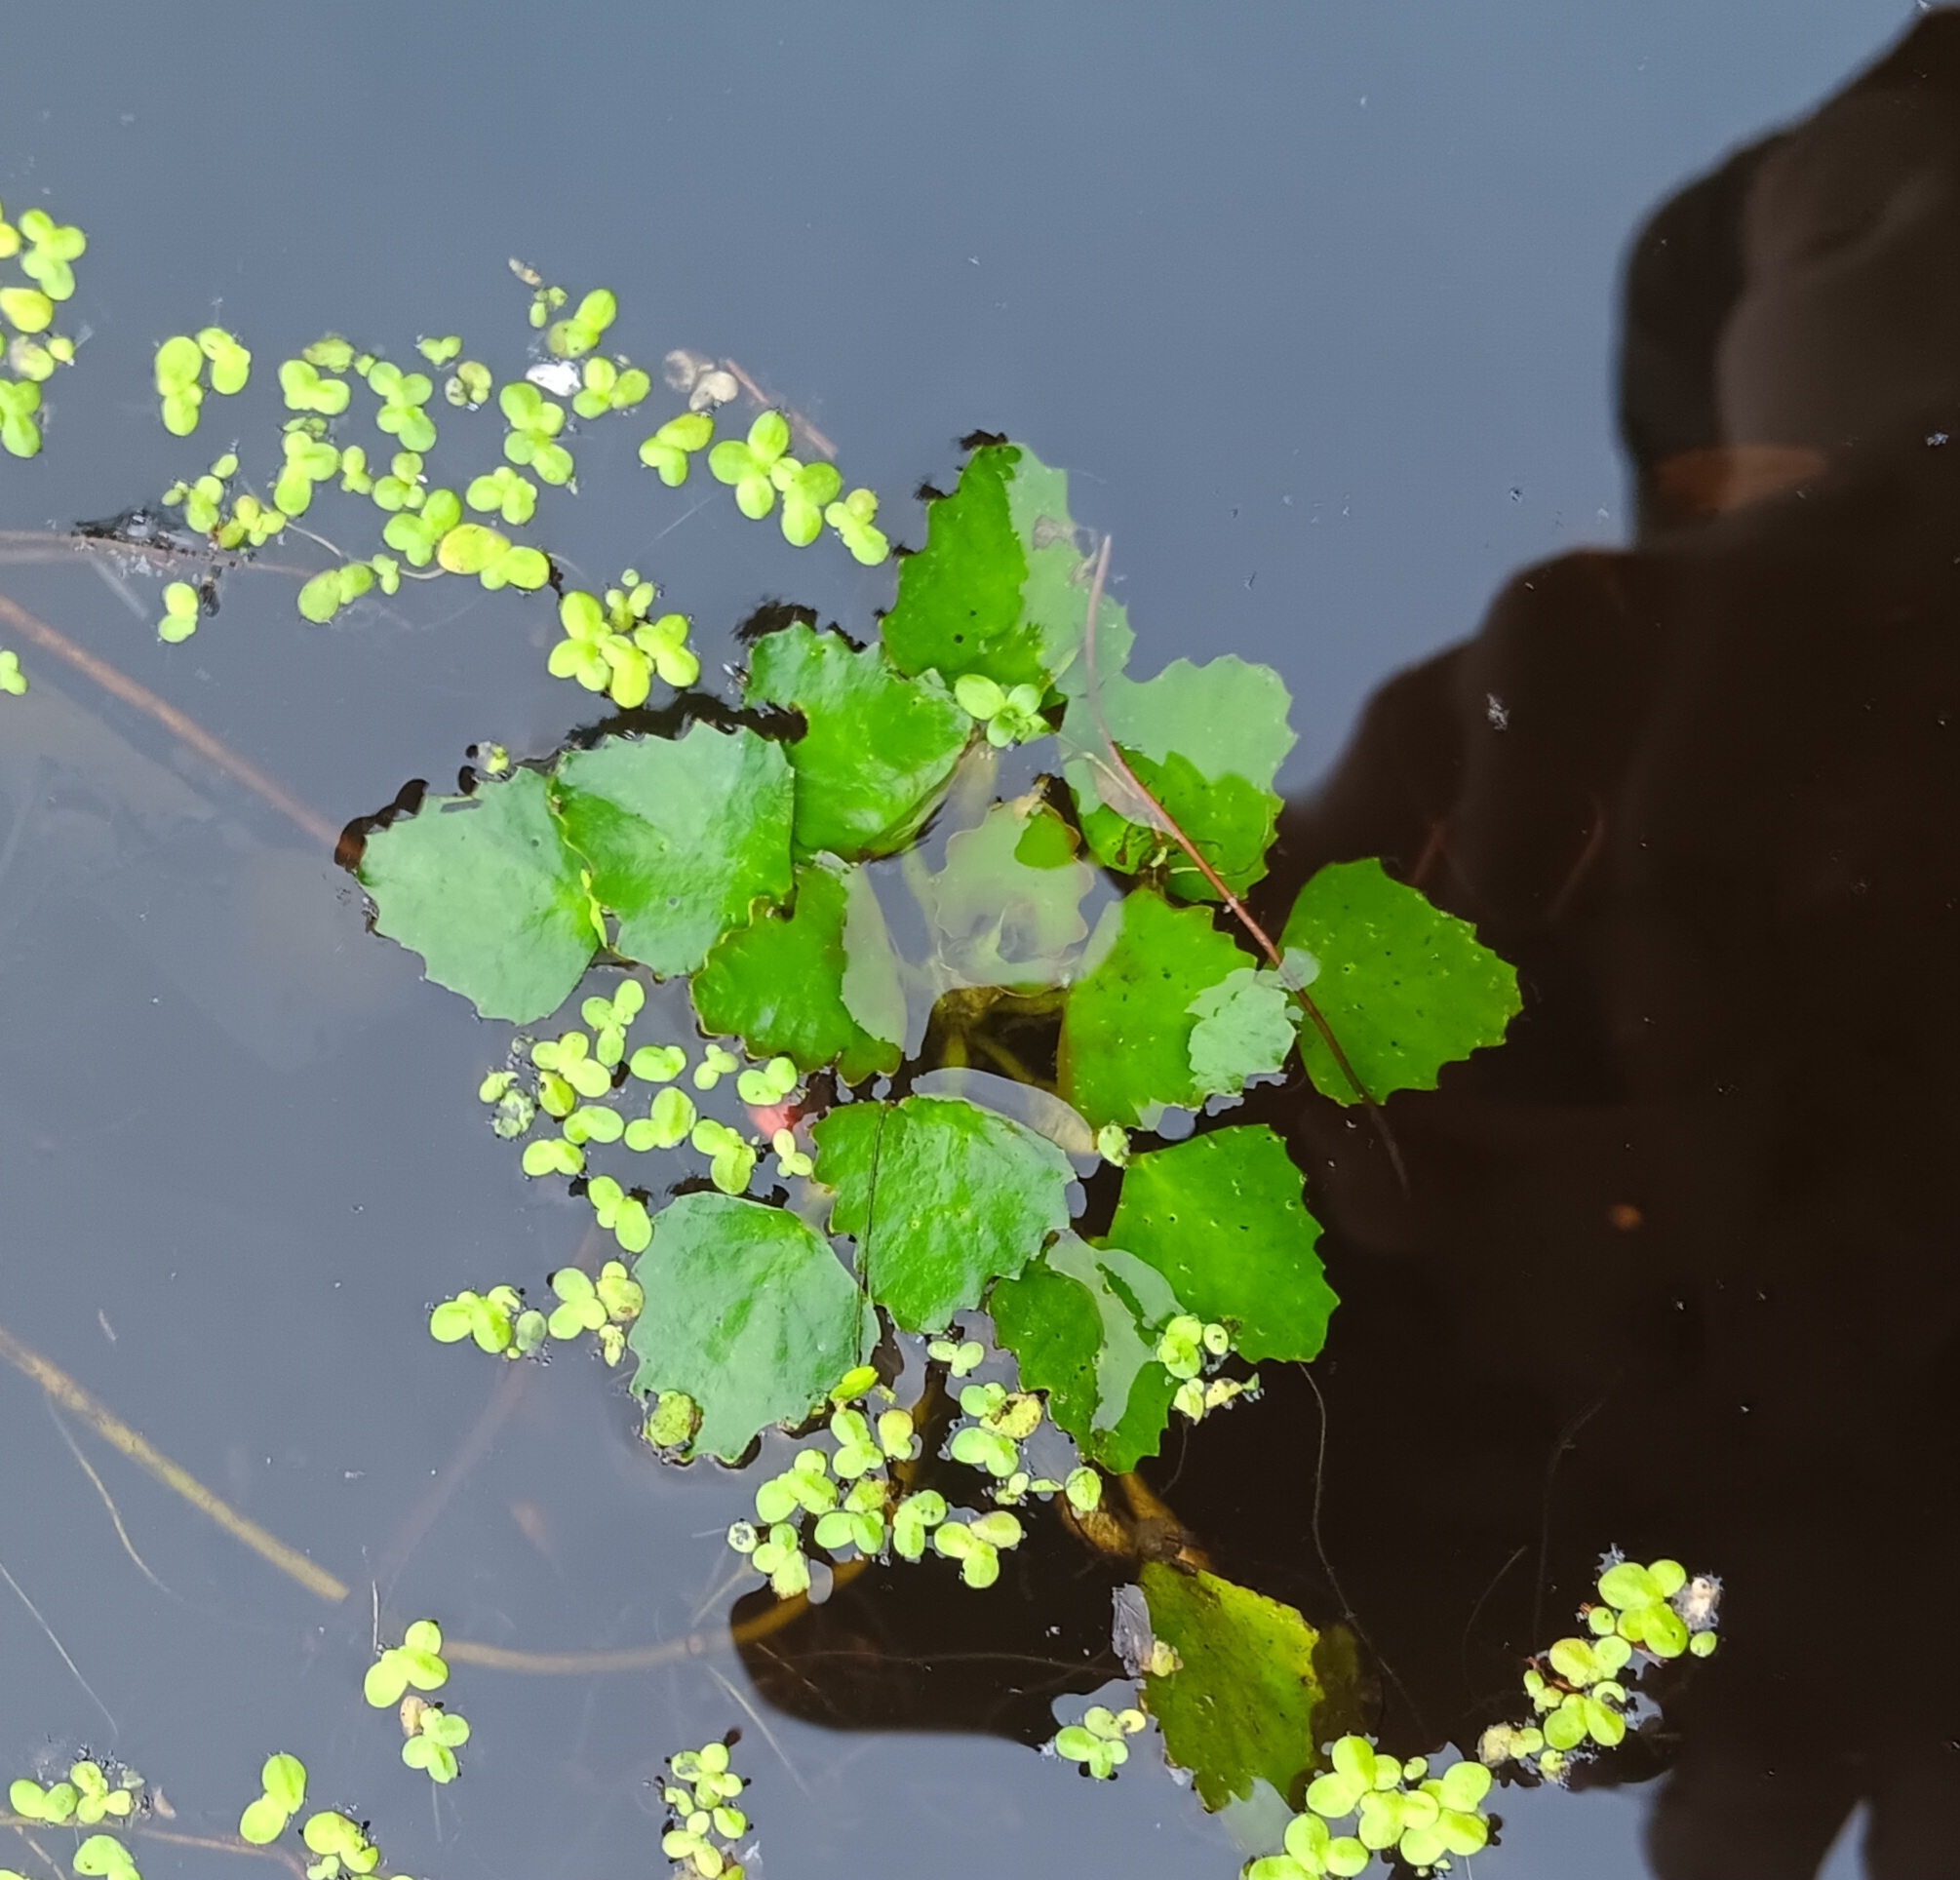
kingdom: Plantae
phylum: Tracheophyta
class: Magnoliopsida
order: Myrtales
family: Lythraceae
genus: Trapa
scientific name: Trapa natans
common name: Water chestnut
